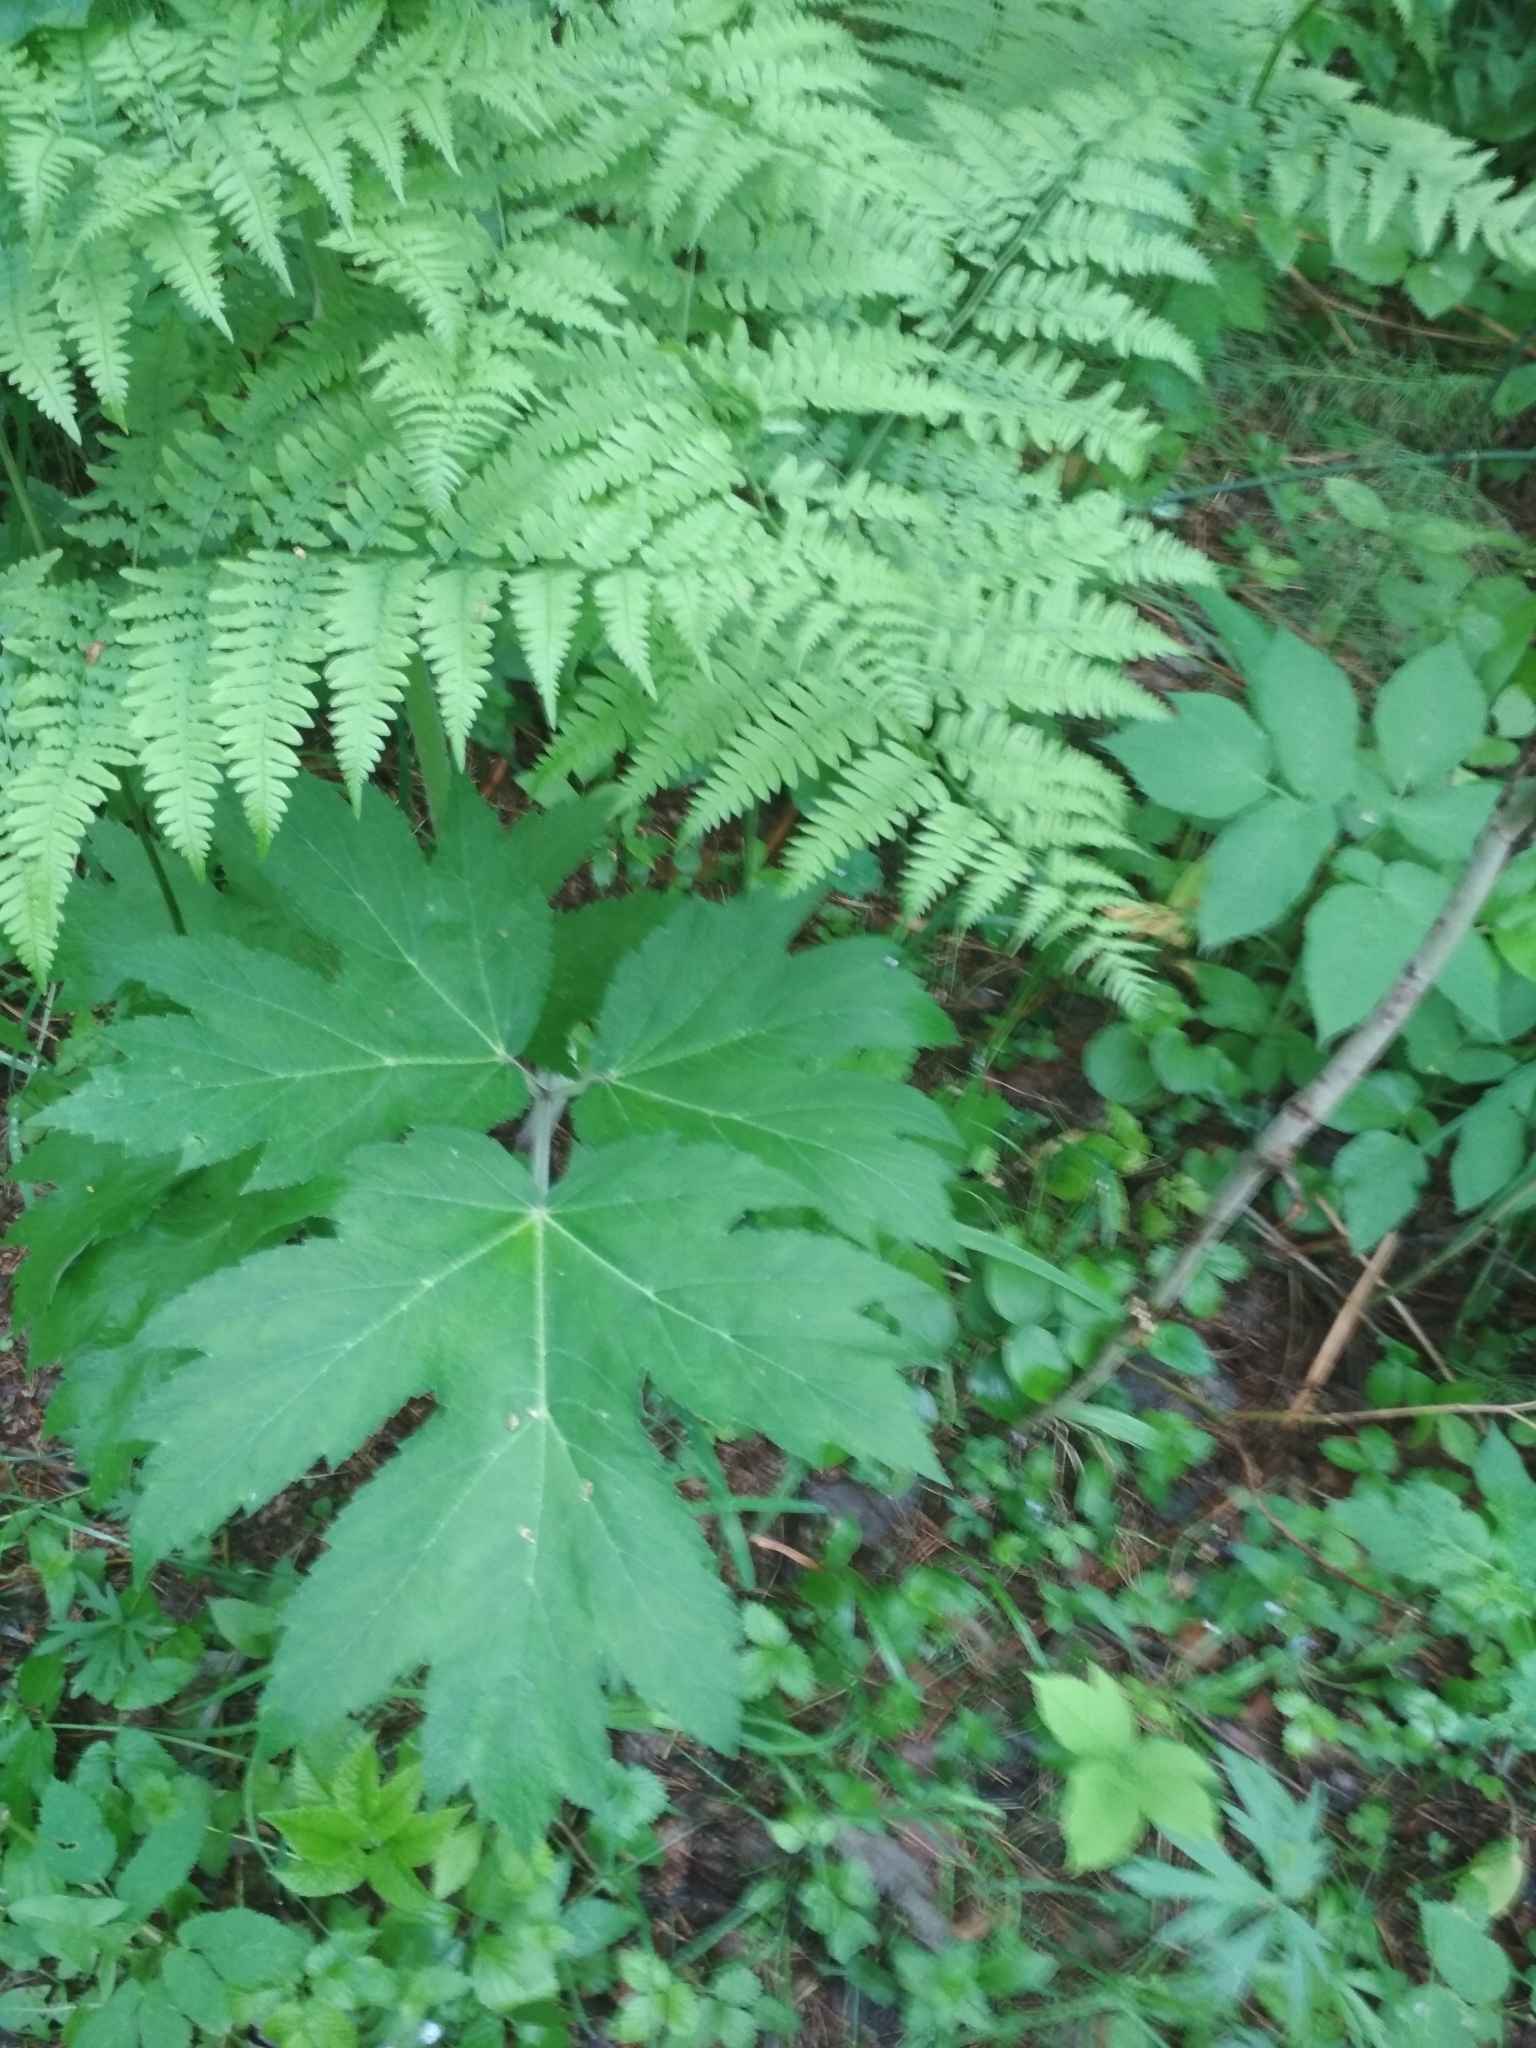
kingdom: Plantae
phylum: Tracheophyta
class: Magnoliopsida
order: Apiales
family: Apiaceae
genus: Heracleum
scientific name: Heracleum dissectum
